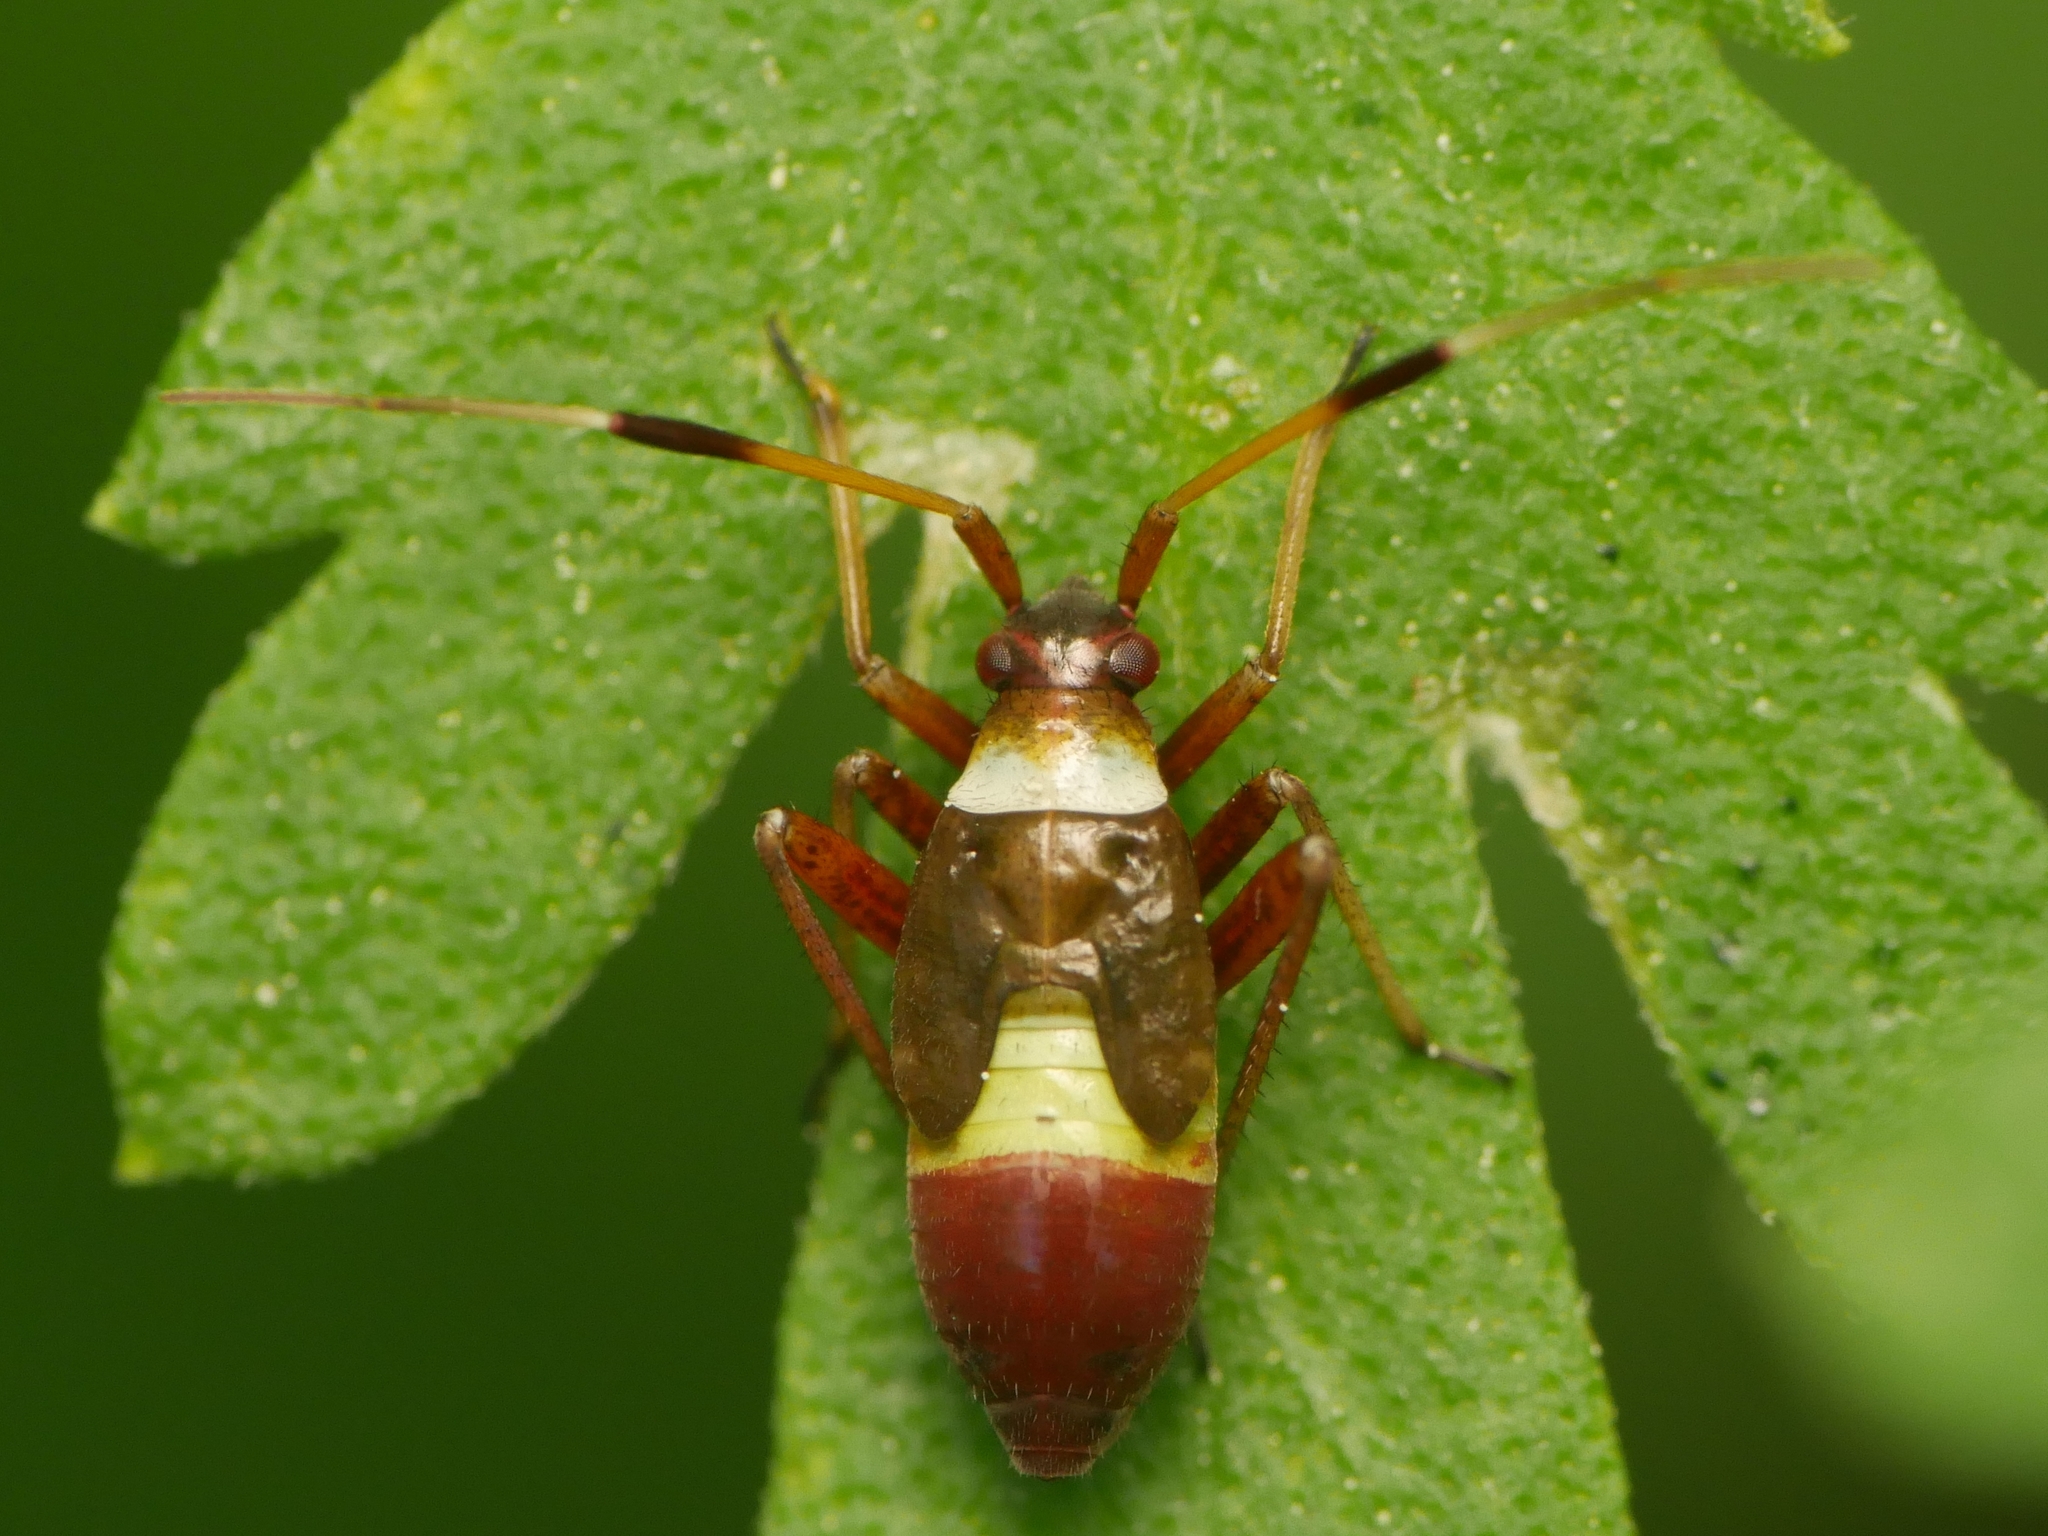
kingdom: Animalia
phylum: Arthropoda
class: Insecta
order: Hemiptera
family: Miridae
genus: Closterotomus
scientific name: Closterotomus biclavatus
